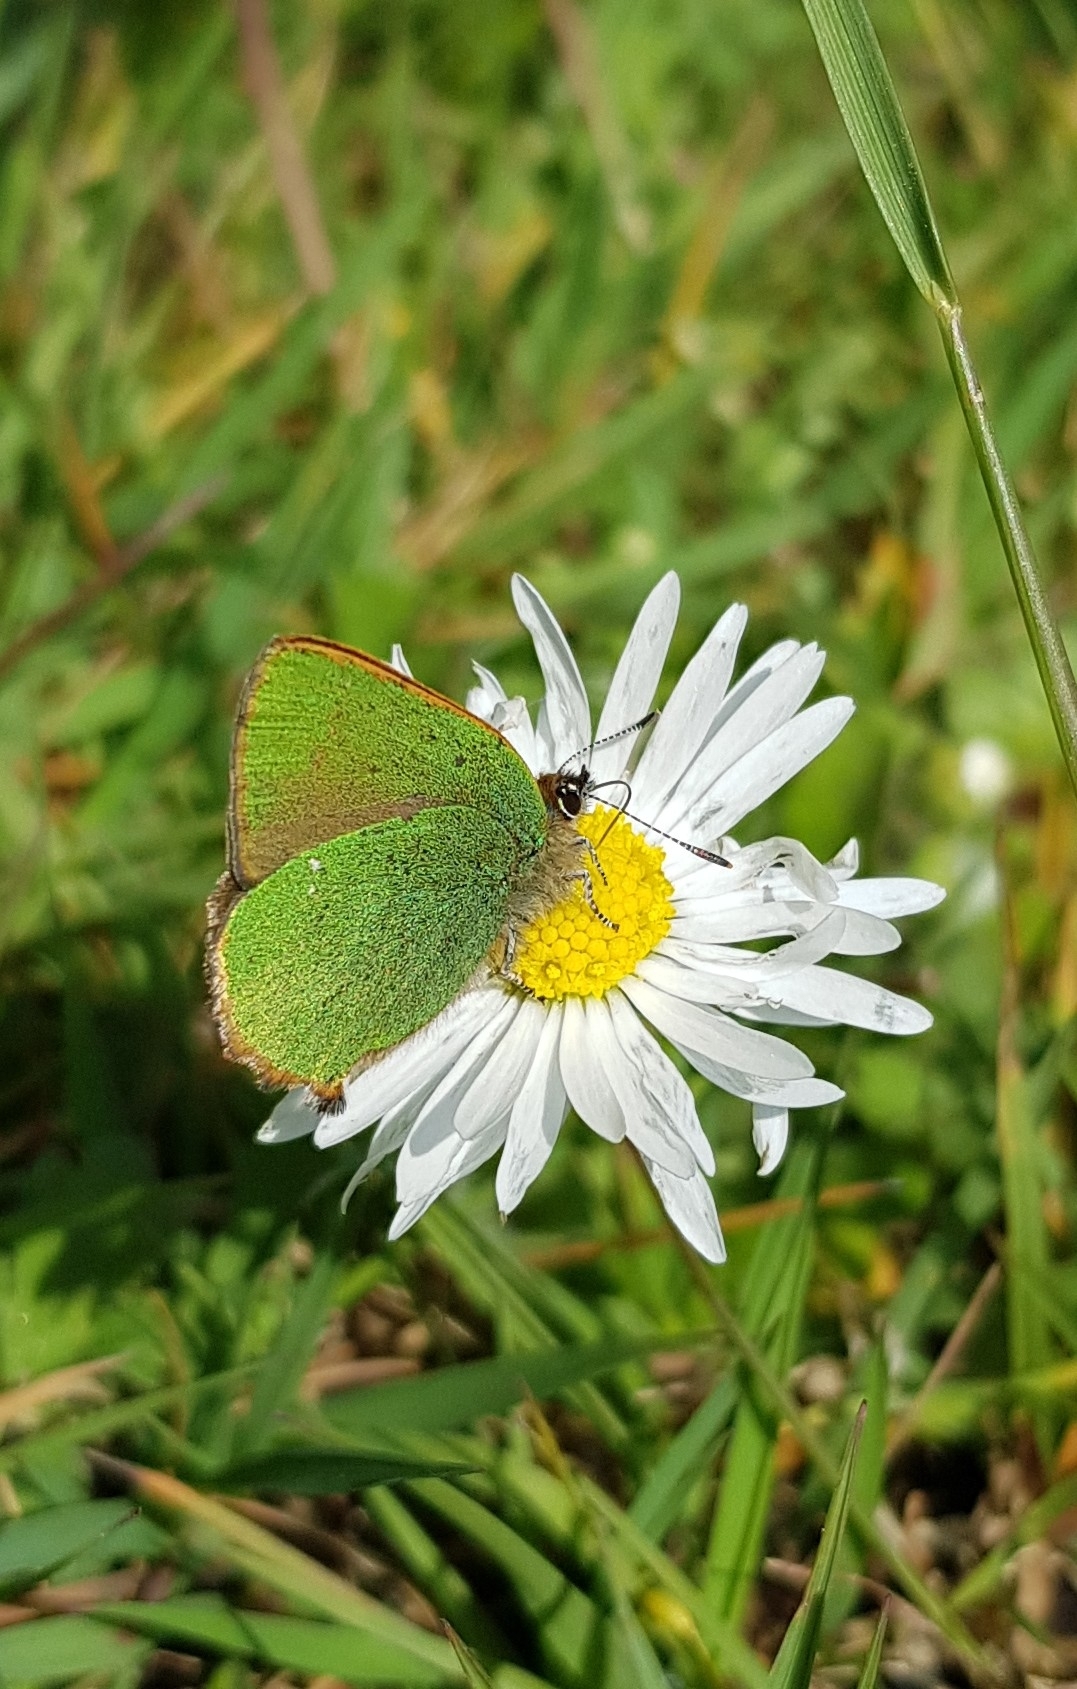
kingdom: Animalia
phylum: Arthropoda
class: Insecta
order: Lepidoptera
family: Lycaenidae
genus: Callophrys
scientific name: Callophrys rubi
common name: Green hairstreak
